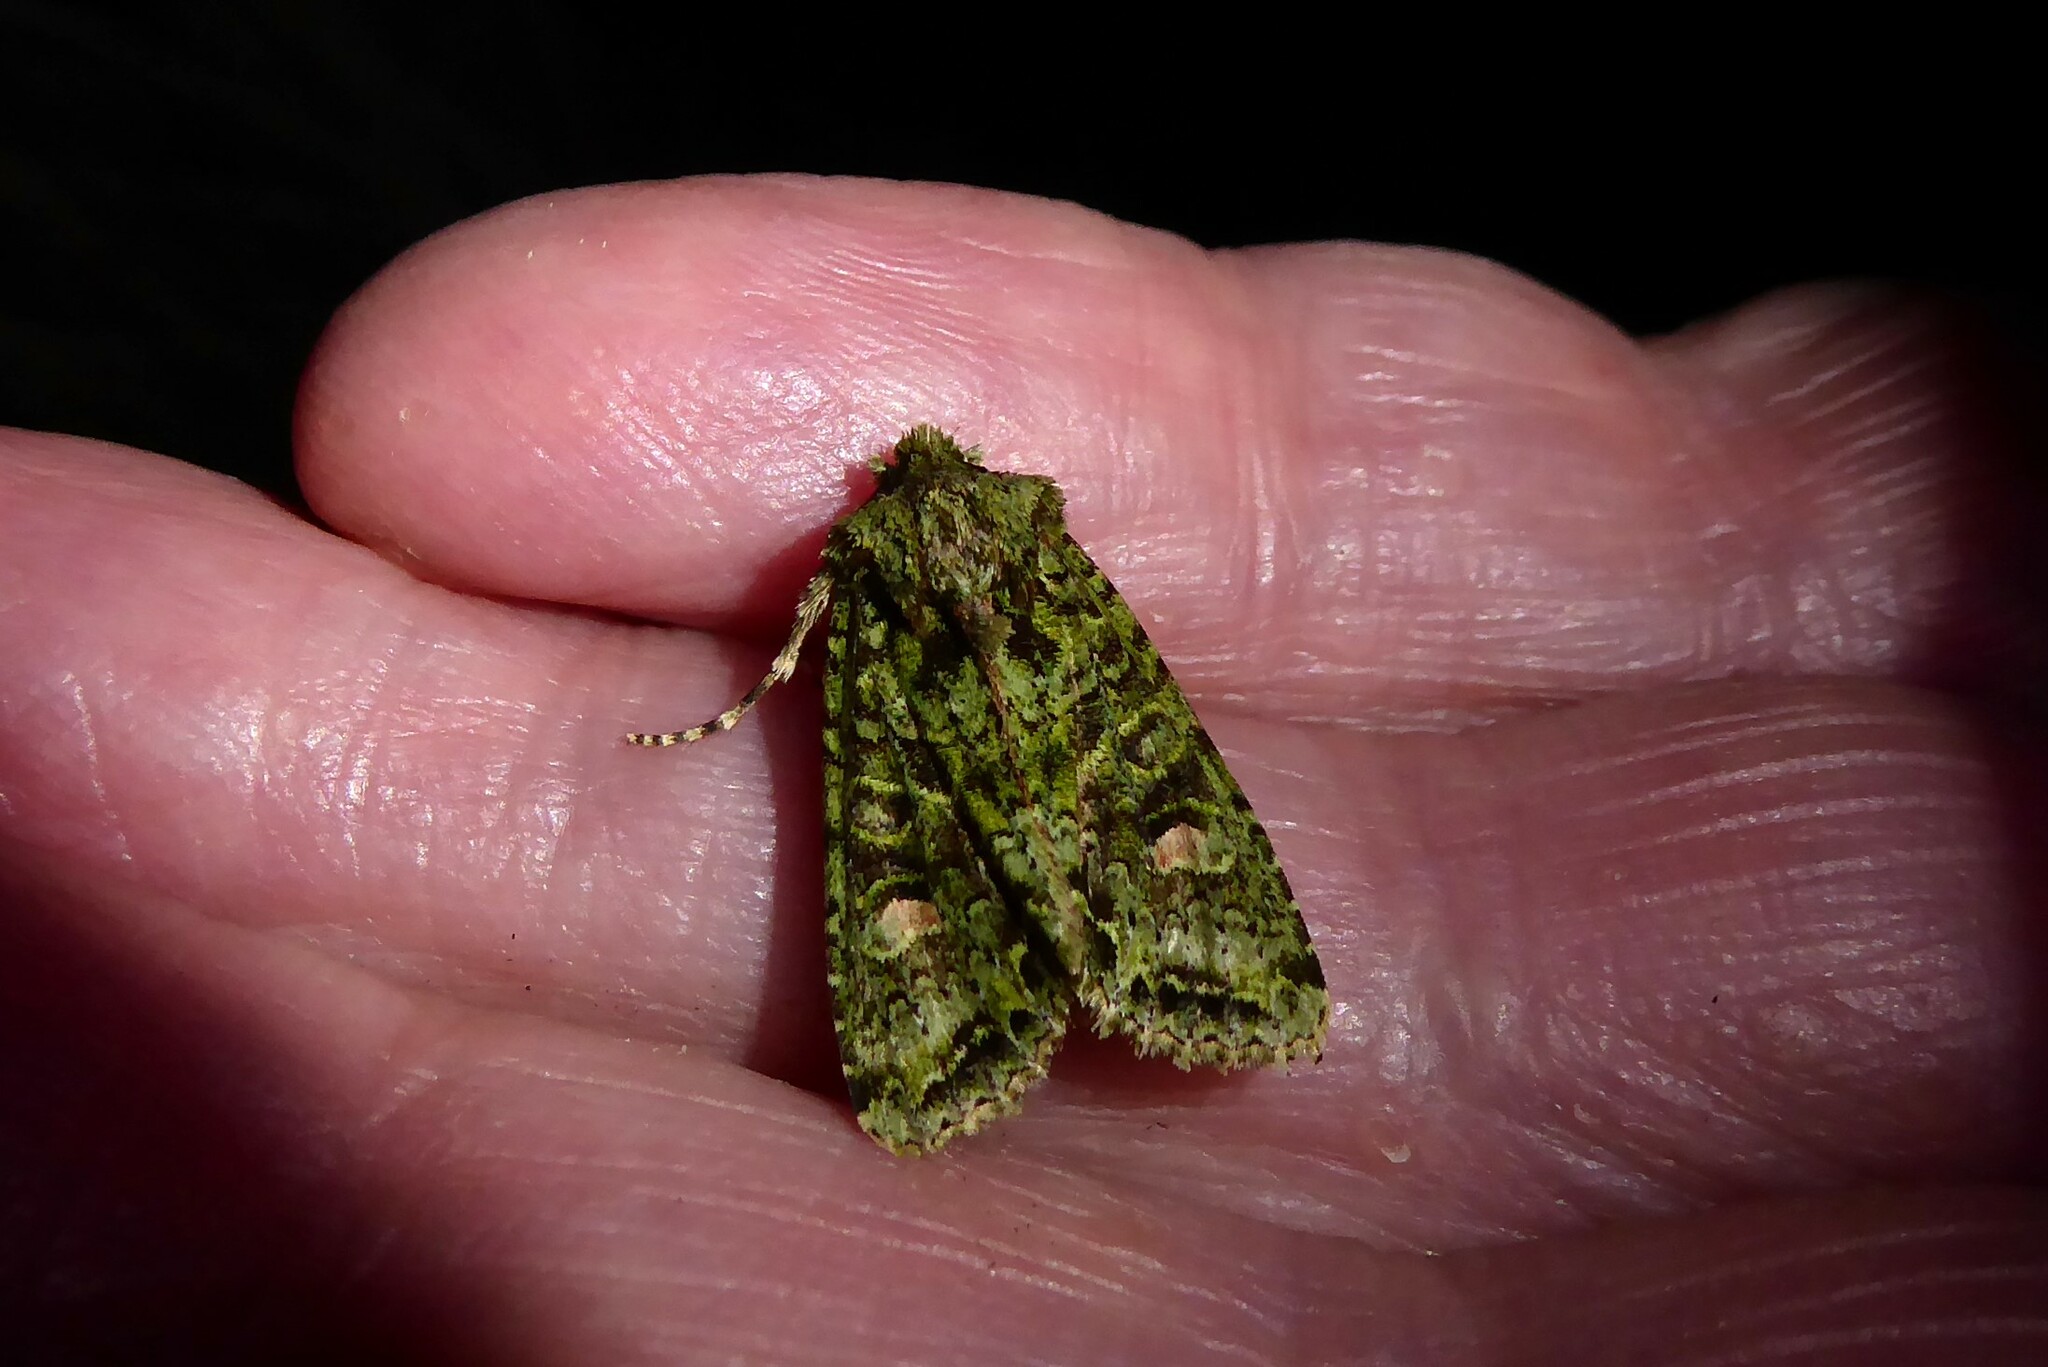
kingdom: Animalia
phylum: Arthropoda
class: Insecta
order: Lepidoptera
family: Noctuidae
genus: Ichneutica
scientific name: Ichneutica
